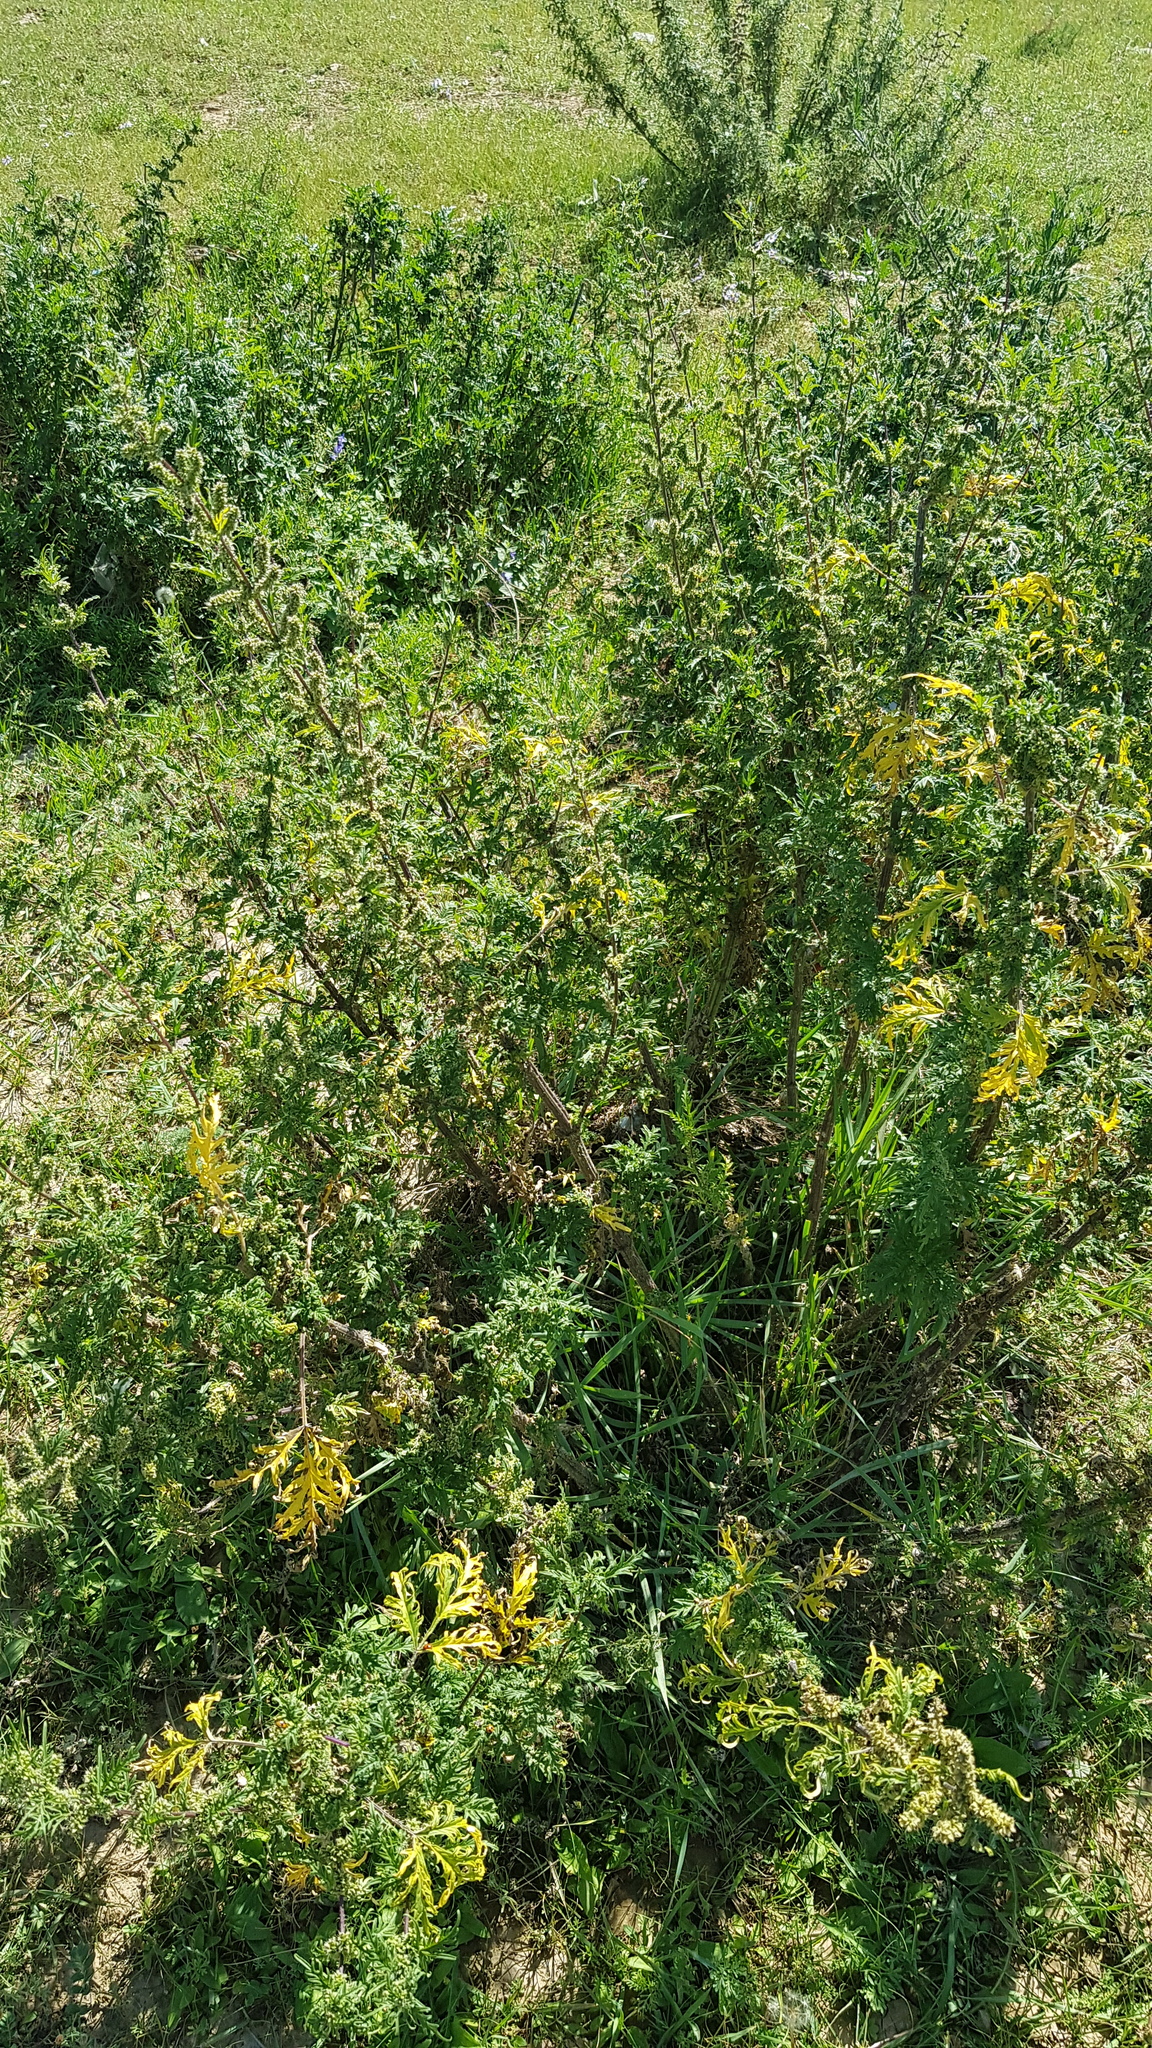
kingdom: Plantae
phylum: Tracheophyta
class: Magnoliopsida
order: Rosales
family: Urticaceae
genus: Urtica
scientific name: Urtica cannabina
